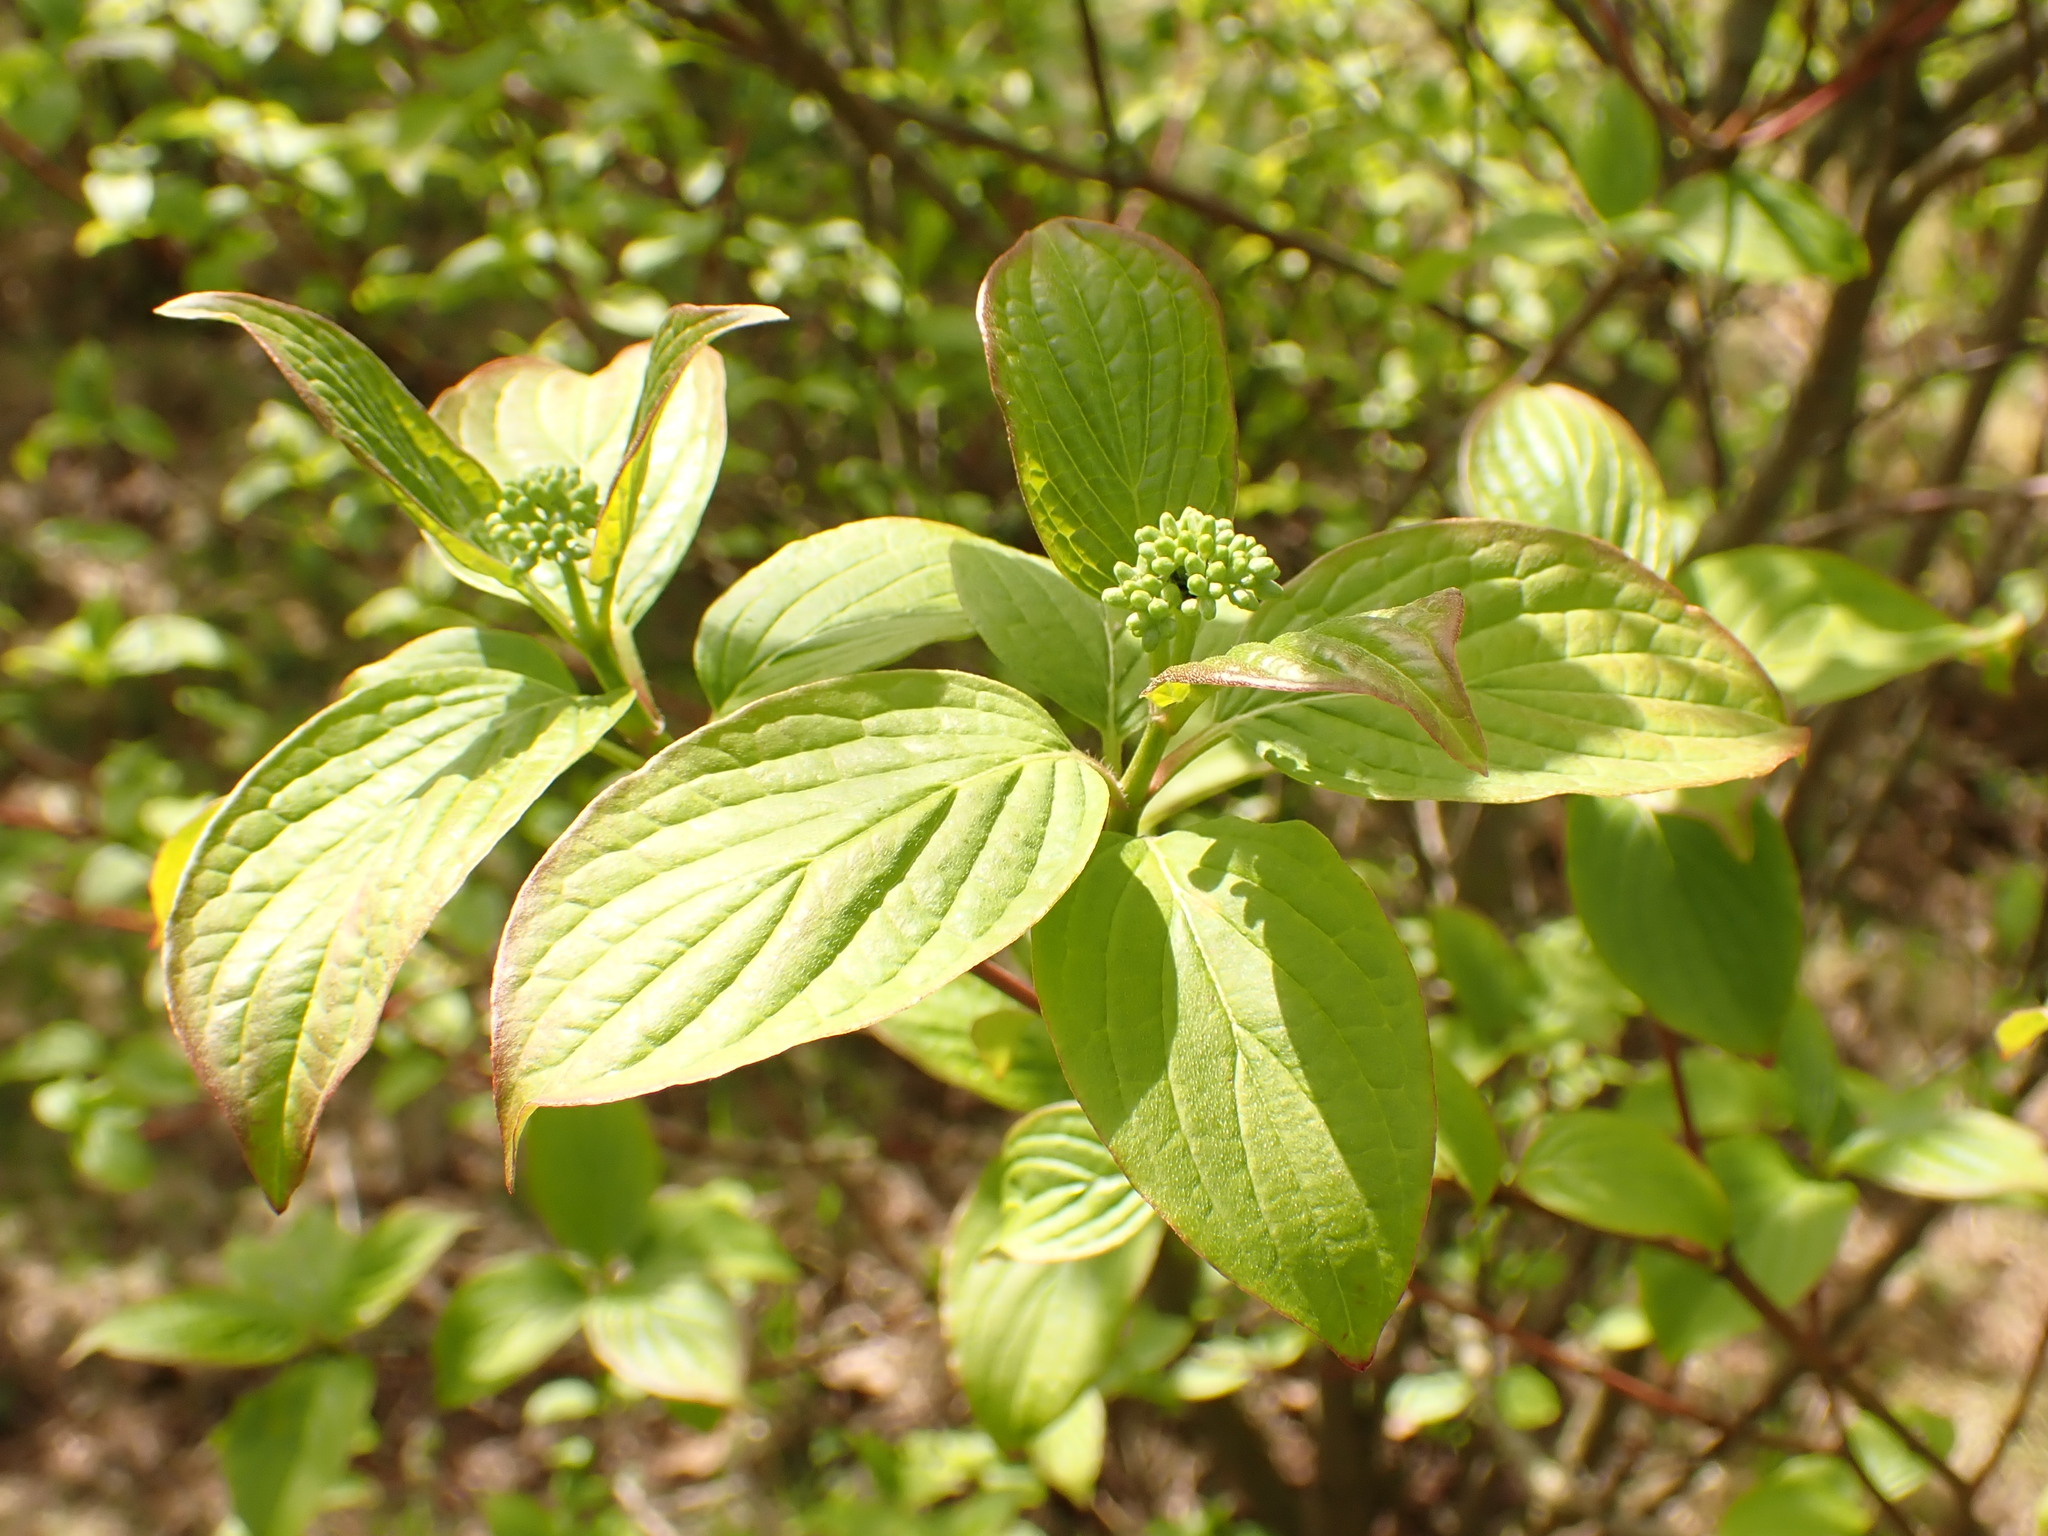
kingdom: Plantae
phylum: Tracheophyta
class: Magnoliopsida
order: Cornales
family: Cornaceae
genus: Cornus
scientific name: Cornus sanguinea
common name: Dogwood
